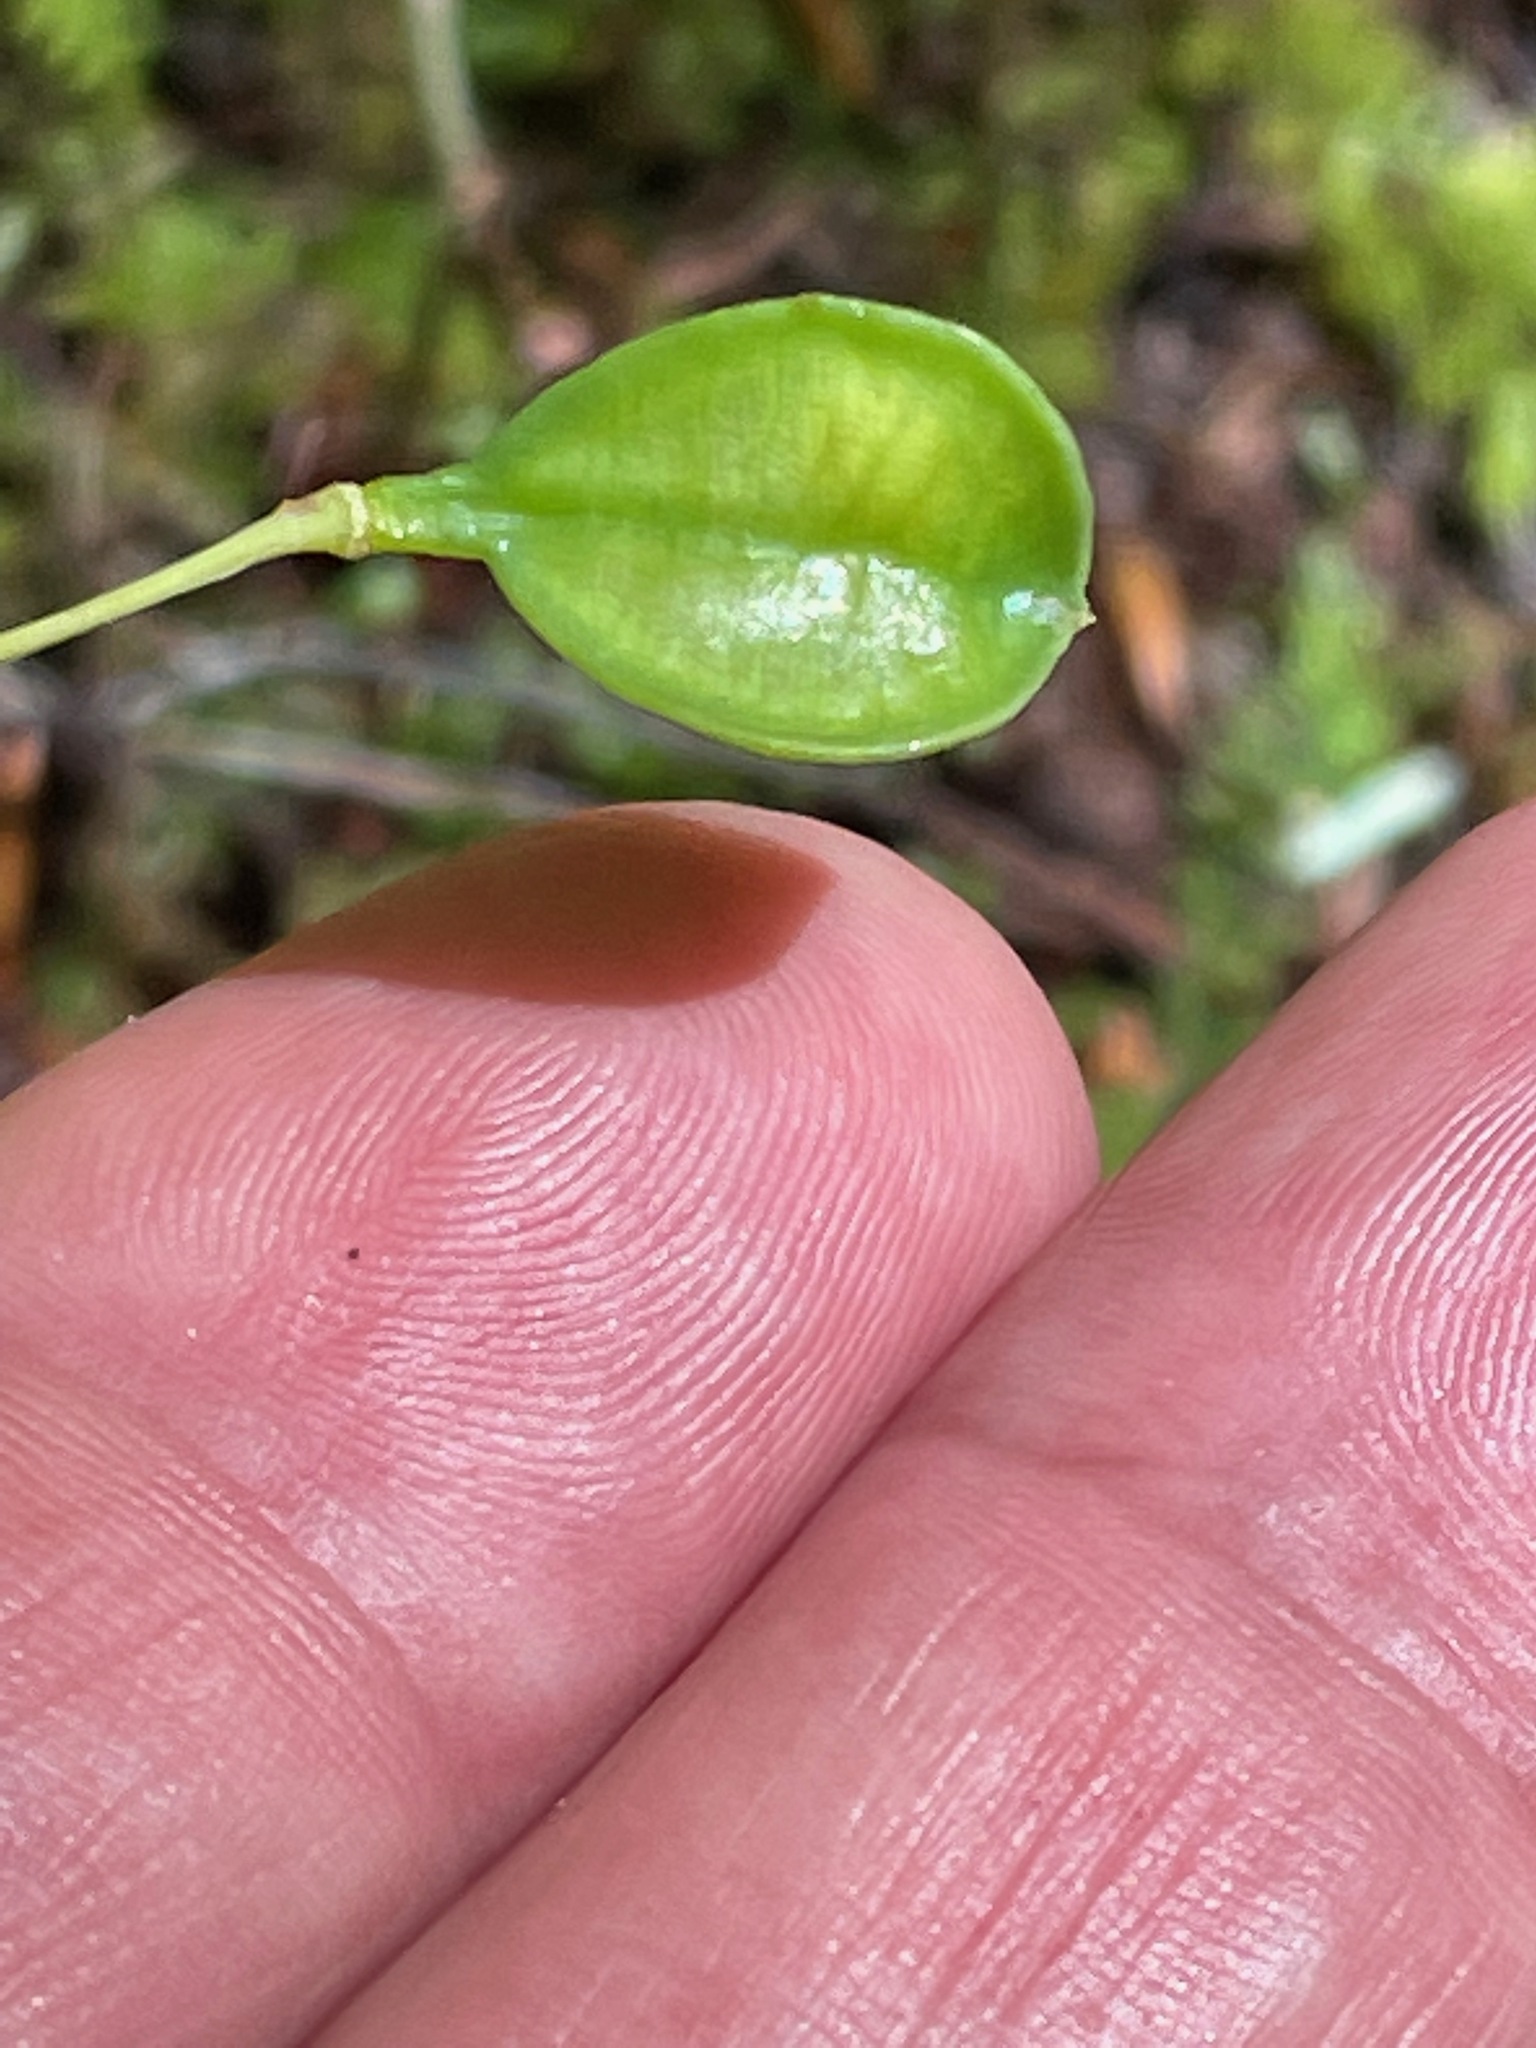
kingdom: Plantae
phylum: Tracheophyta
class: Liliopsida
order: Liliales
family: Colchicaceae
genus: Uvularia
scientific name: Uvularia sessilifolia
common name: Straw-lily
